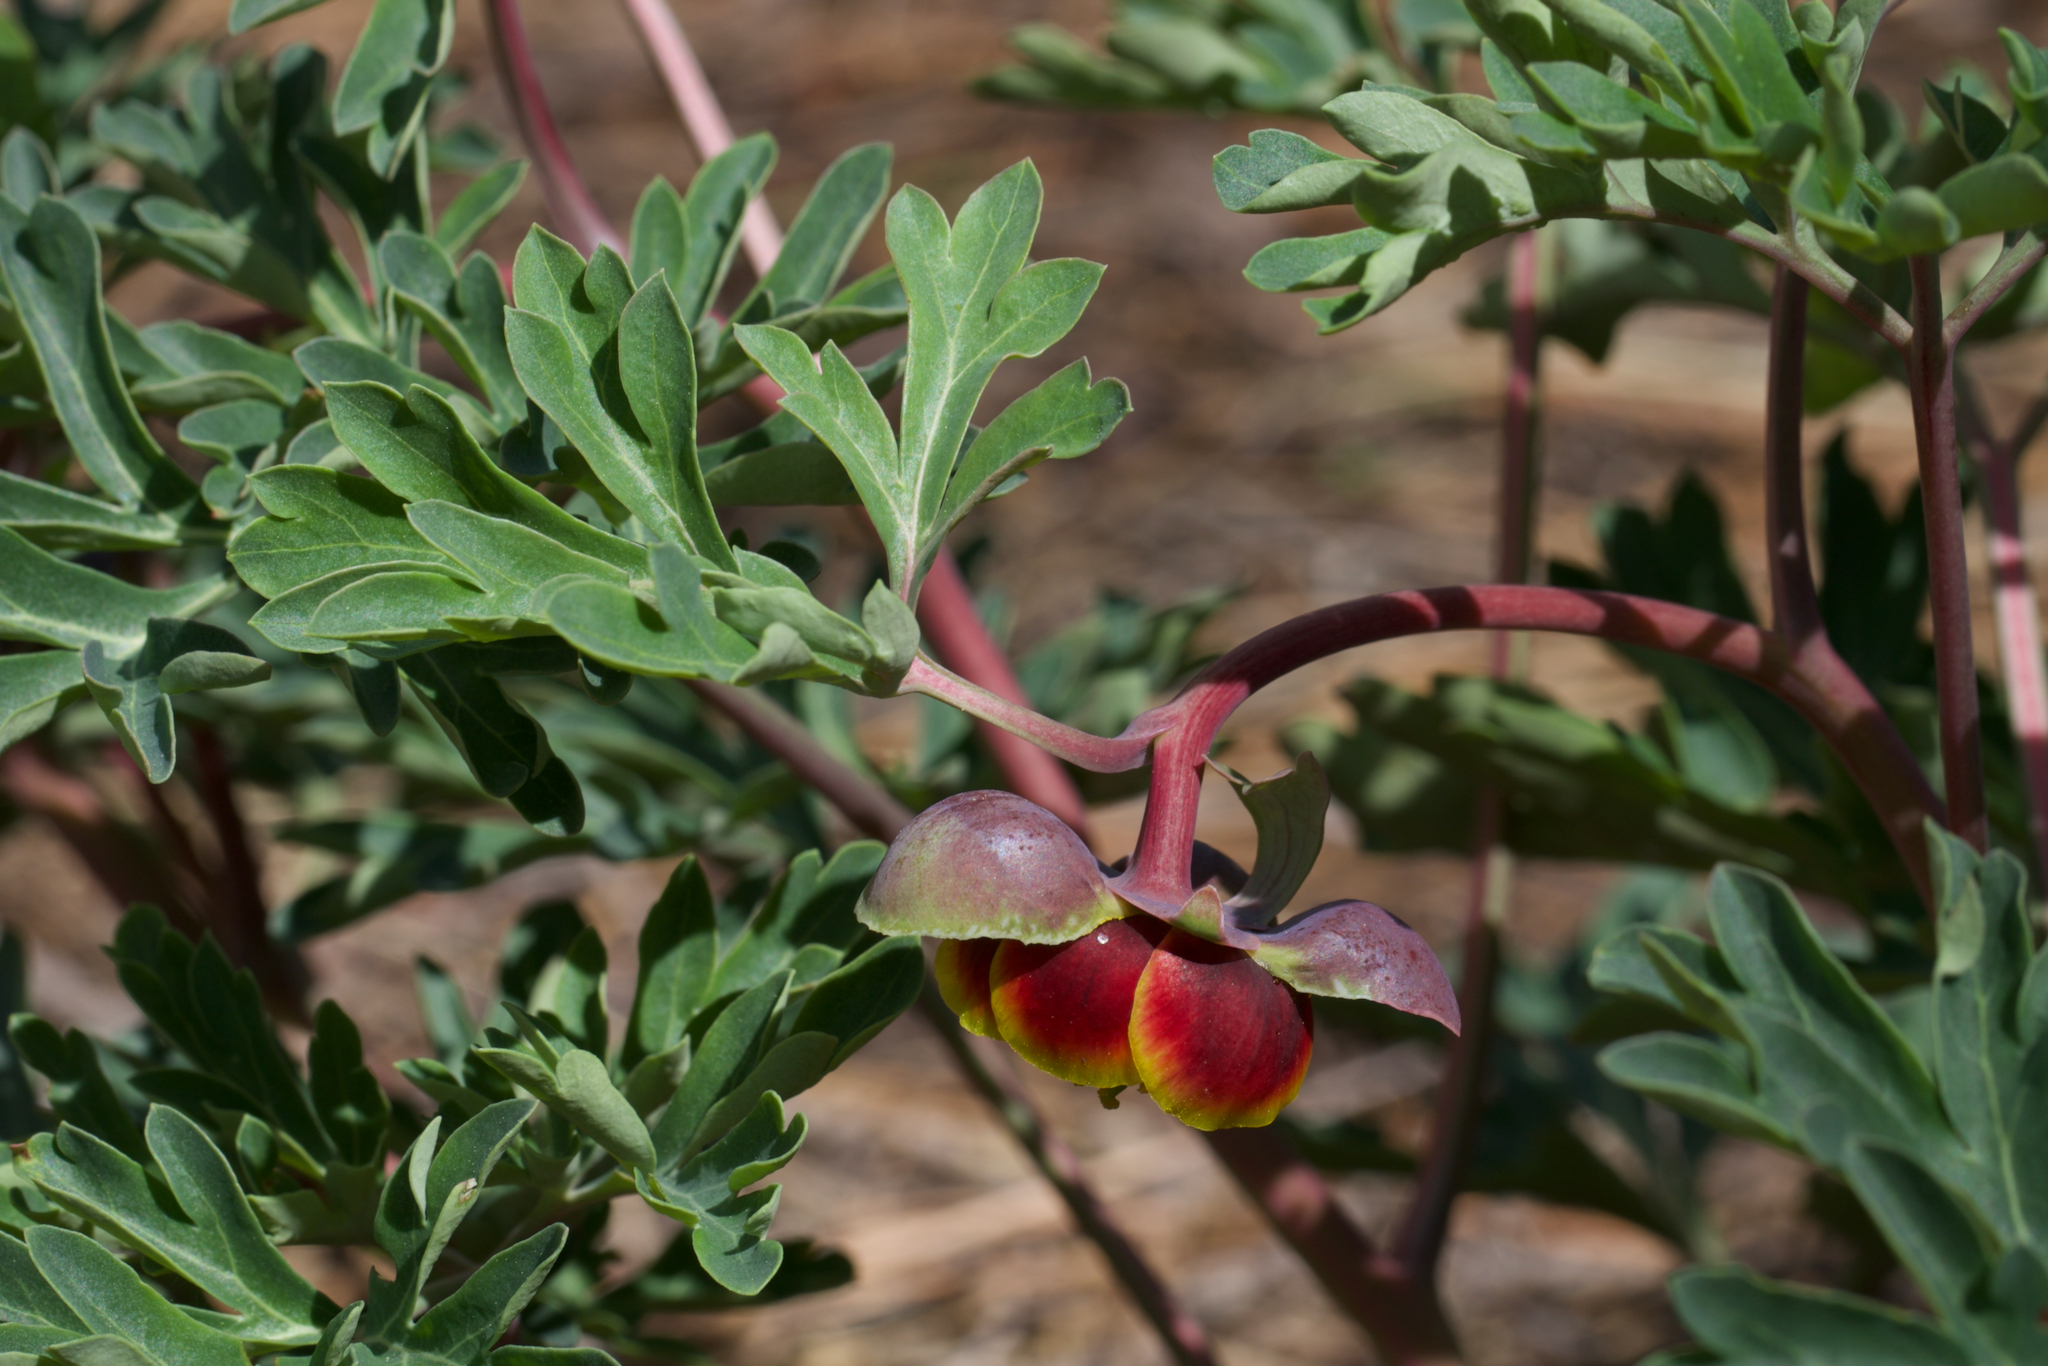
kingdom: Plantae
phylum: Tracheophyta
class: Magnoliopsida
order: Saxifragales
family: Paeoniaceae
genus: Paeonia
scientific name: Paeonia brownii
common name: Brown's peony
